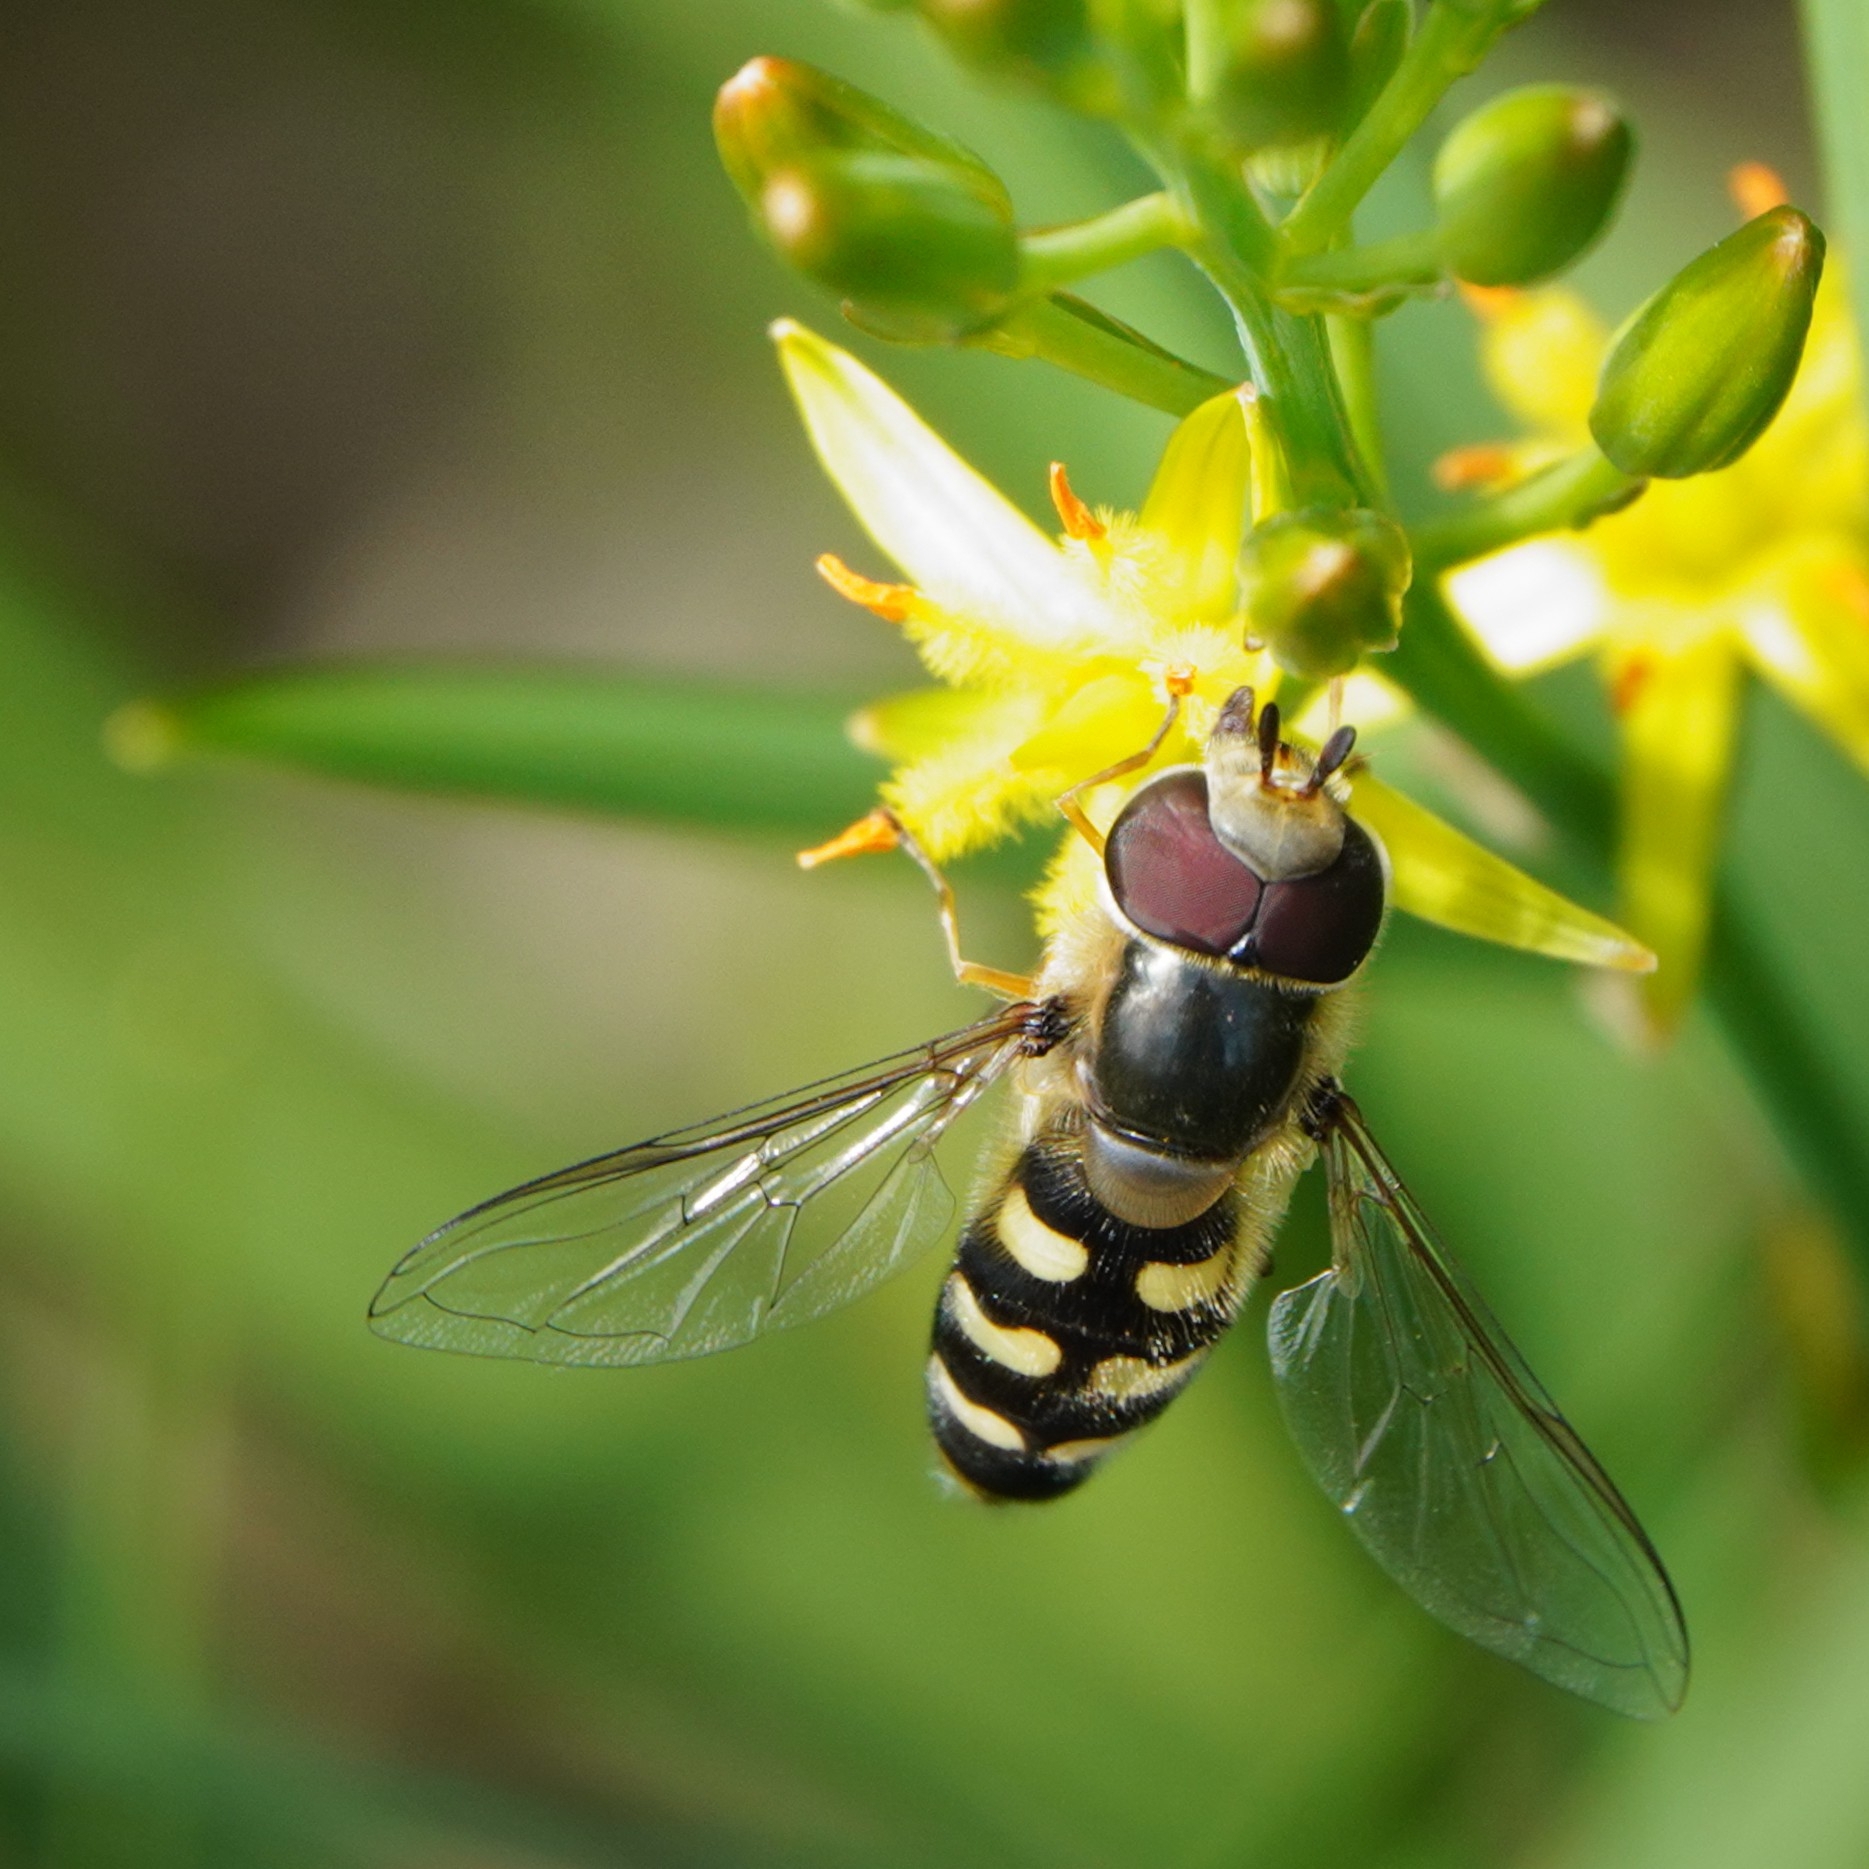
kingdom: Animalia
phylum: Arthropoda
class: Insecta
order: Diptera
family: Syrphidae
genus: Scaeva
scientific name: Scaeva selenitica
